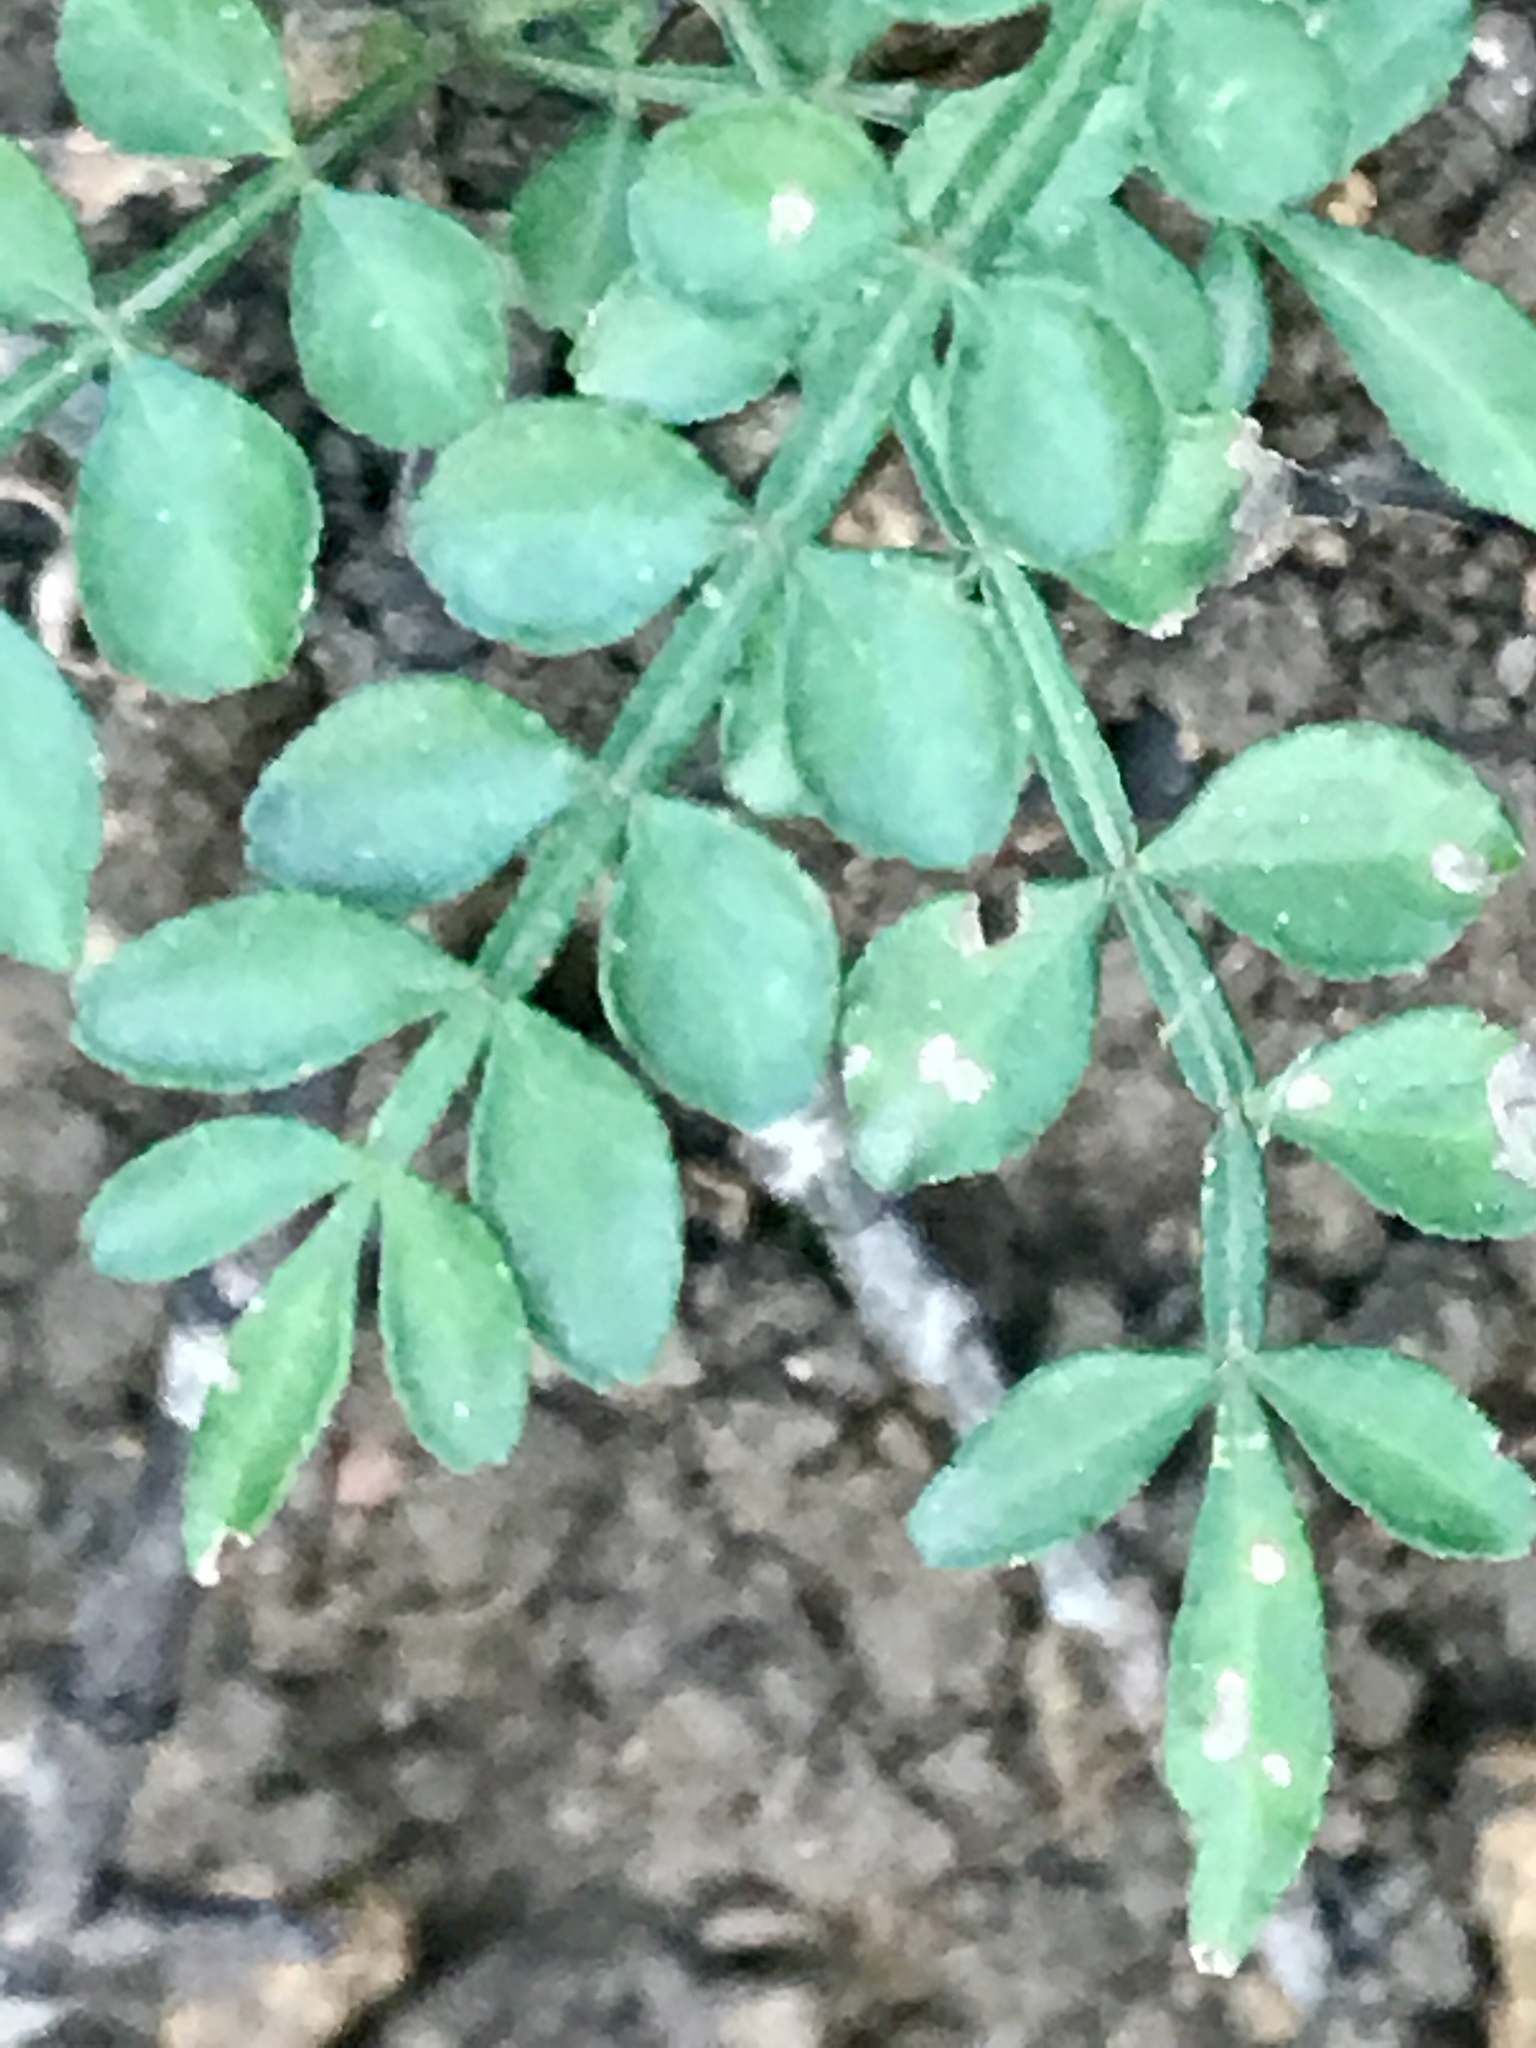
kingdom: Plantae
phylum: Tracheophyta
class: Magnoliopsida
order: Sapindales
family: Rutaceae
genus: Zanthoxylum
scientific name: Zanthoxylum fagara
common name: Lime prickly-ash
